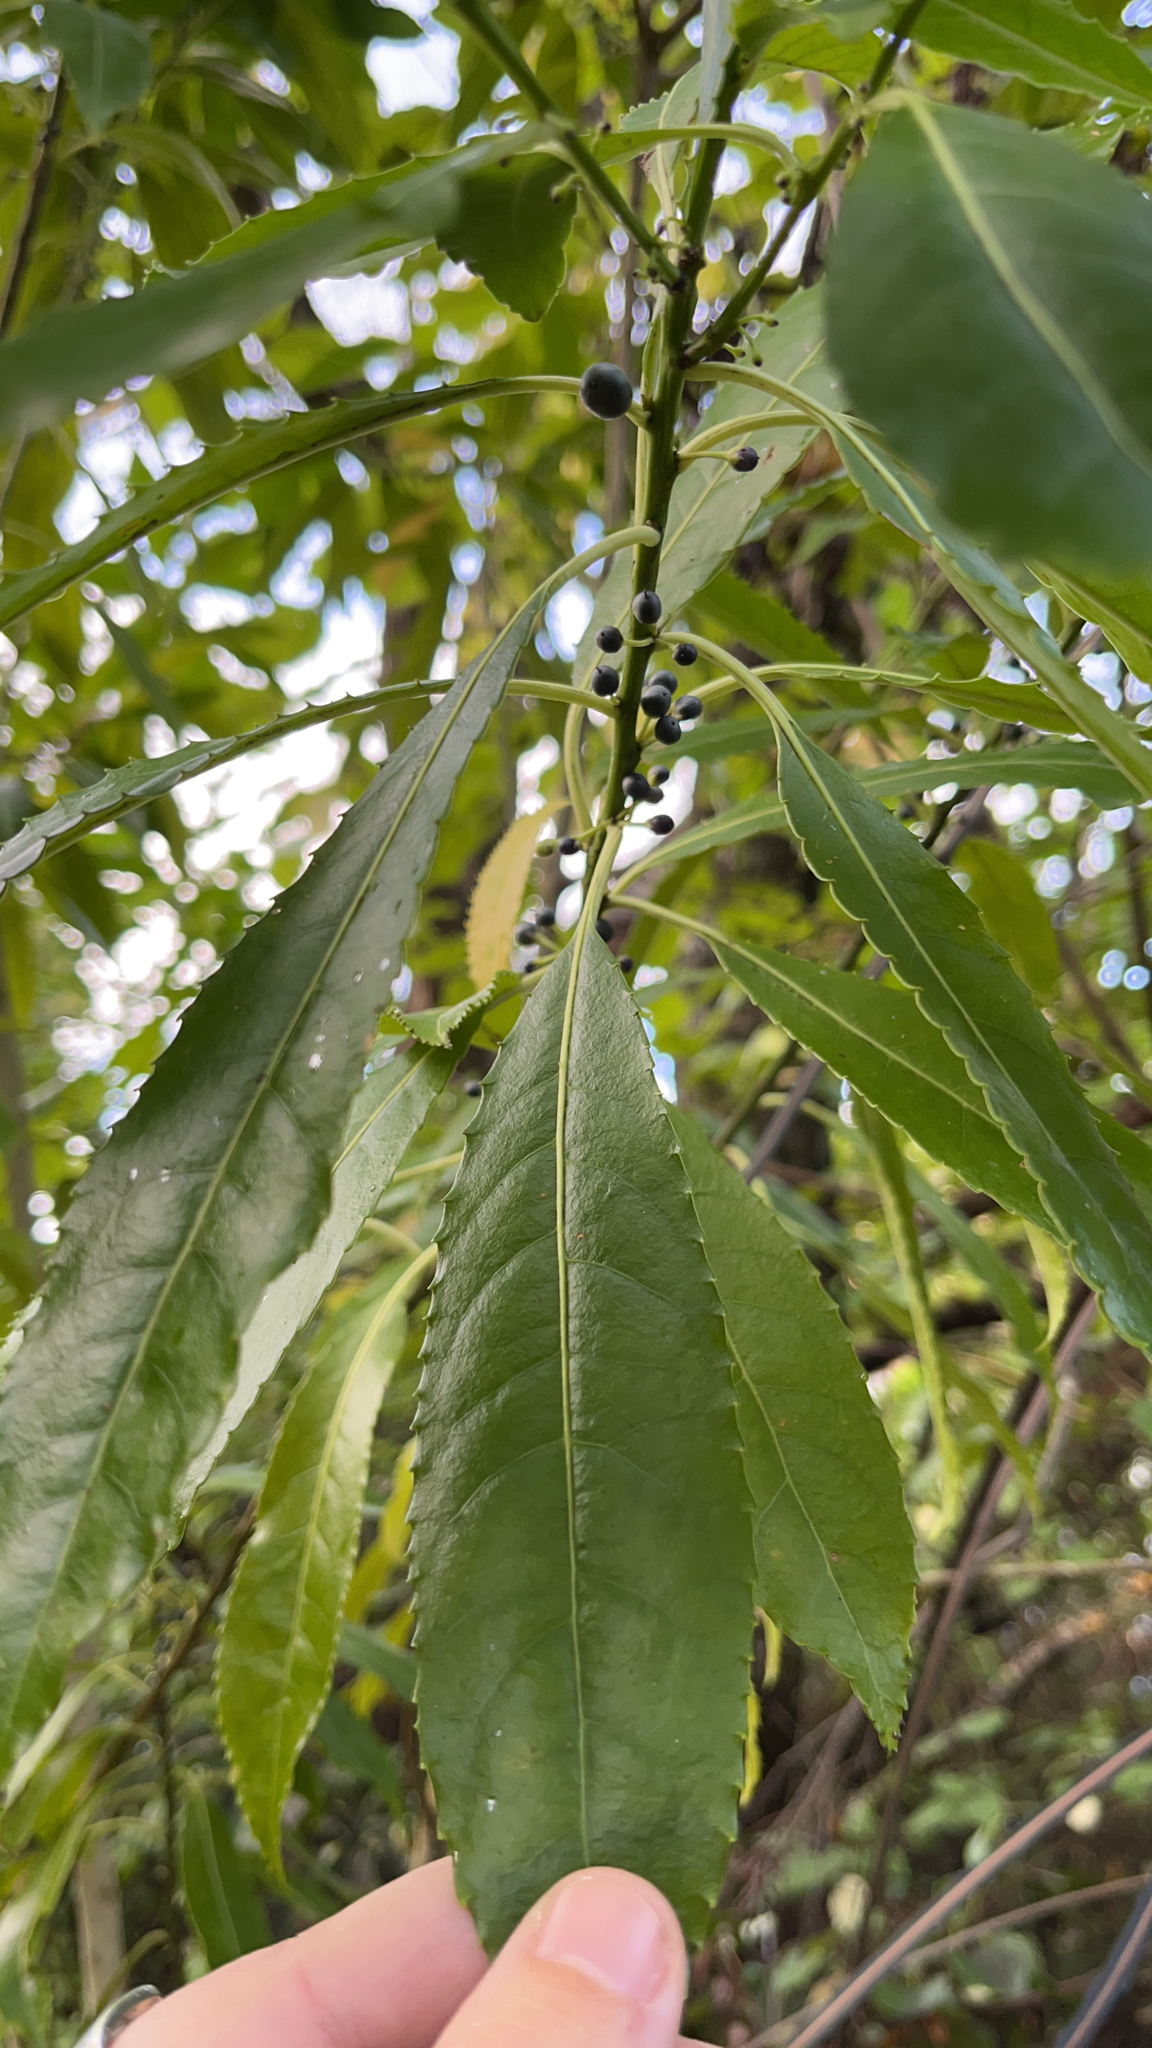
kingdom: Plantae
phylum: Tracheophyta
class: Magnoliopsida
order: Malpighiales
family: Violaceae
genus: Melicytus
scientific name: Melicytus ramiflorus
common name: Mahoe
